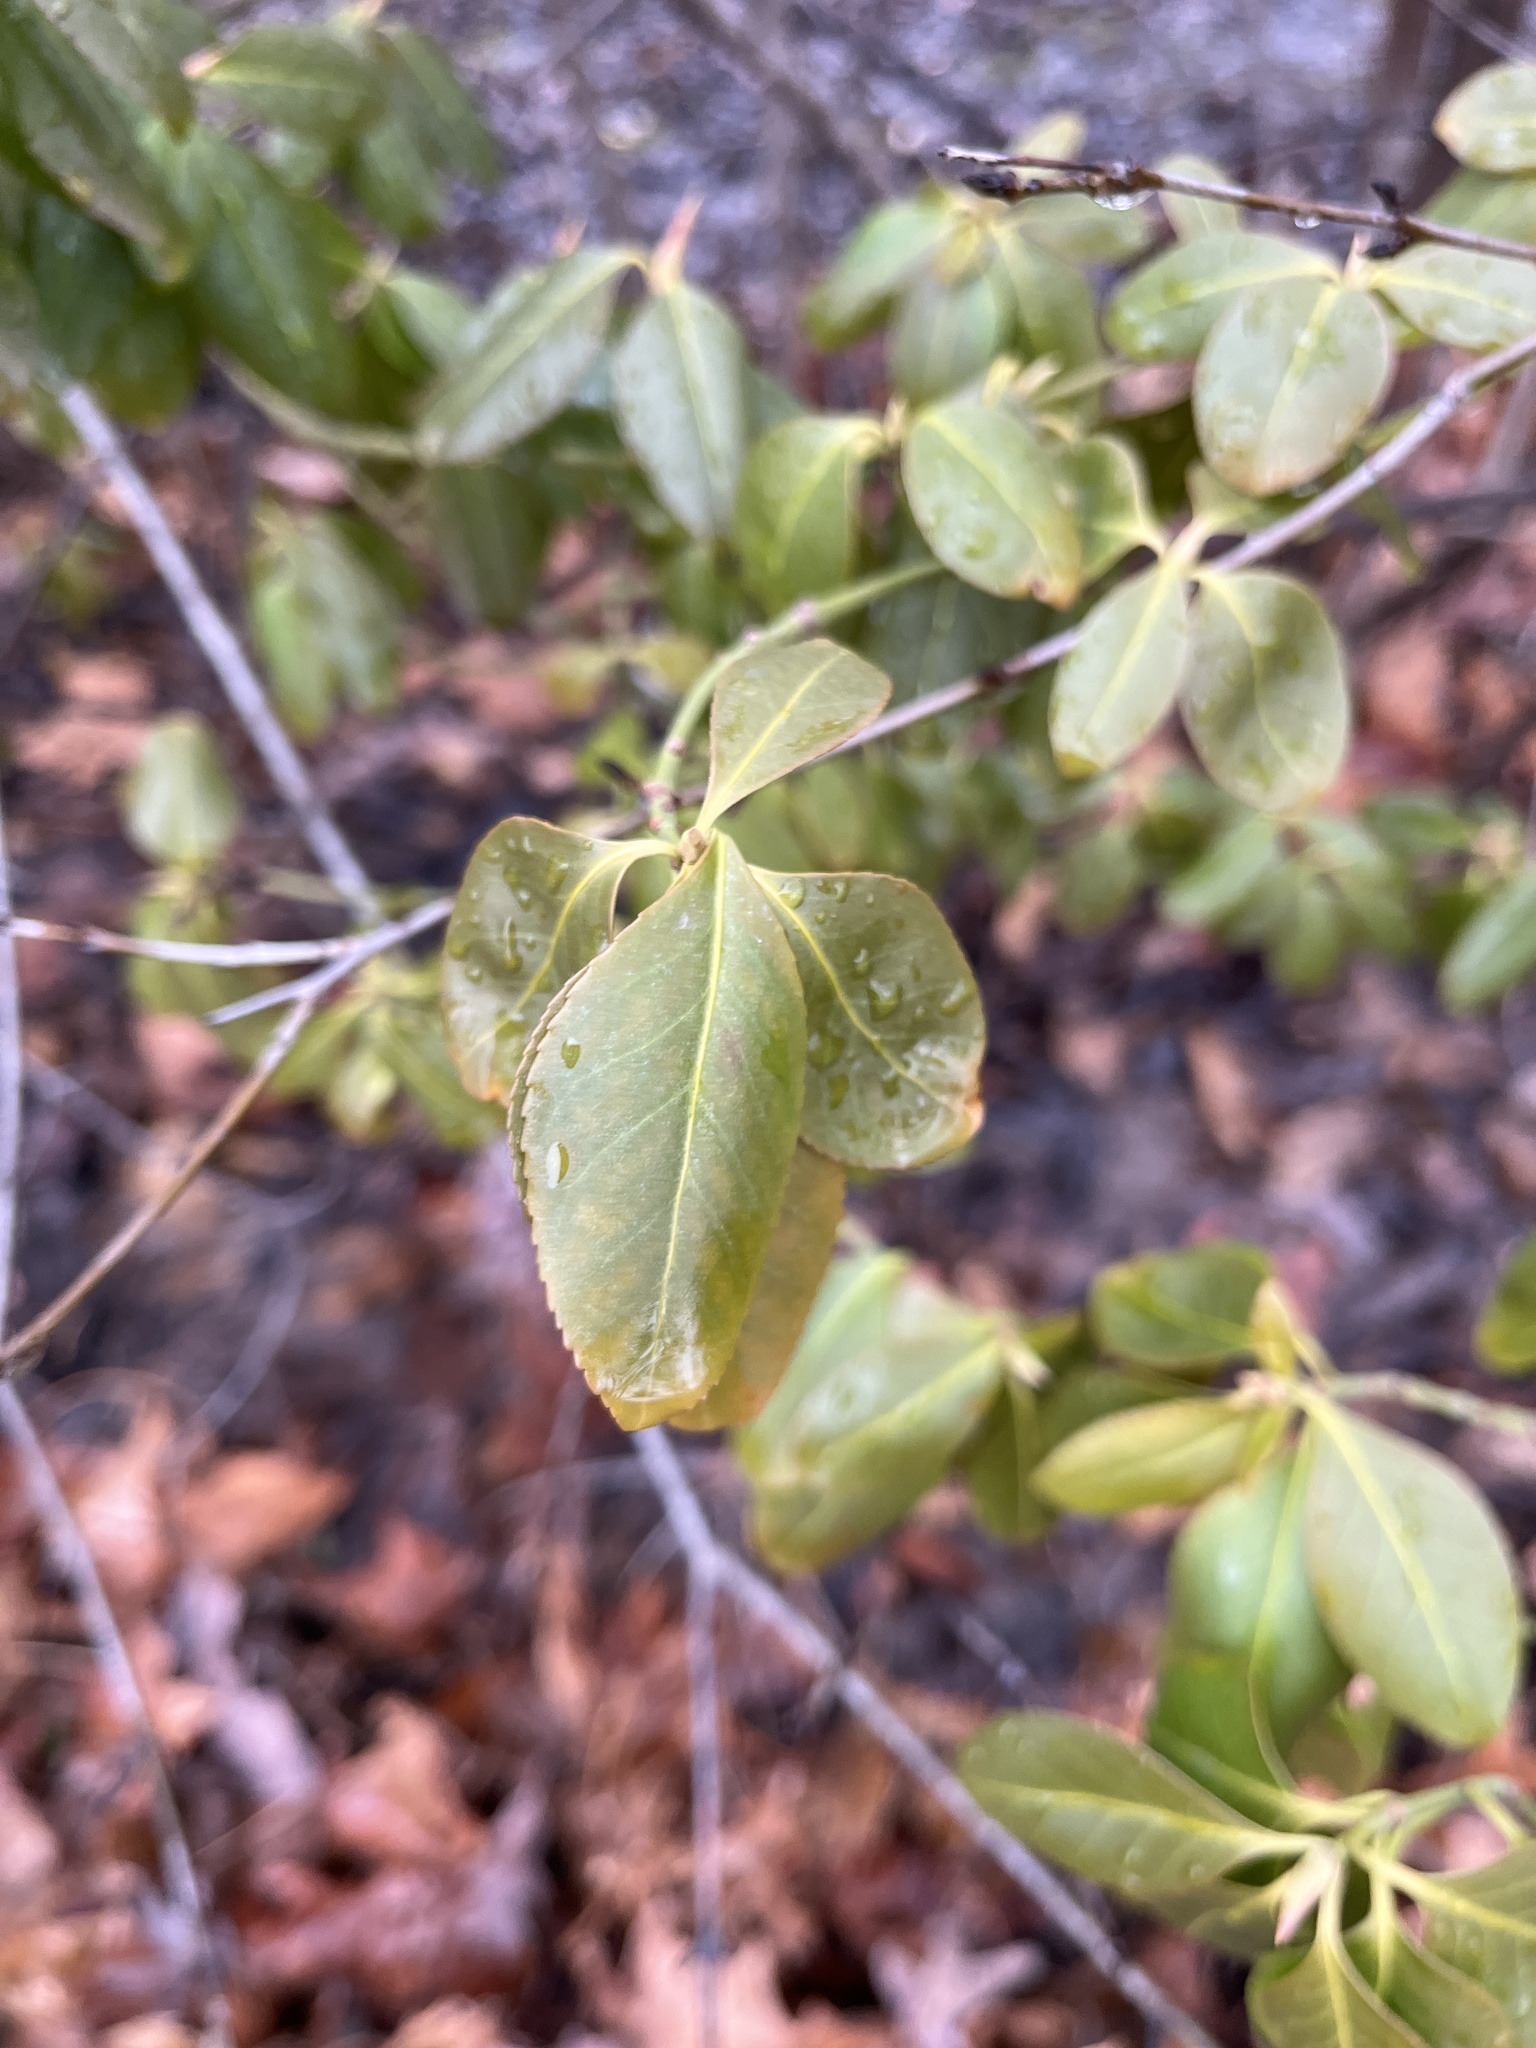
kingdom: Plantae
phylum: Tracheophyta
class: Magnoliopsida
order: Celastrales
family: Celastraceae
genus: Euonymus
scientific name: Euonymus fortunei
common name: Climbing euonymus
